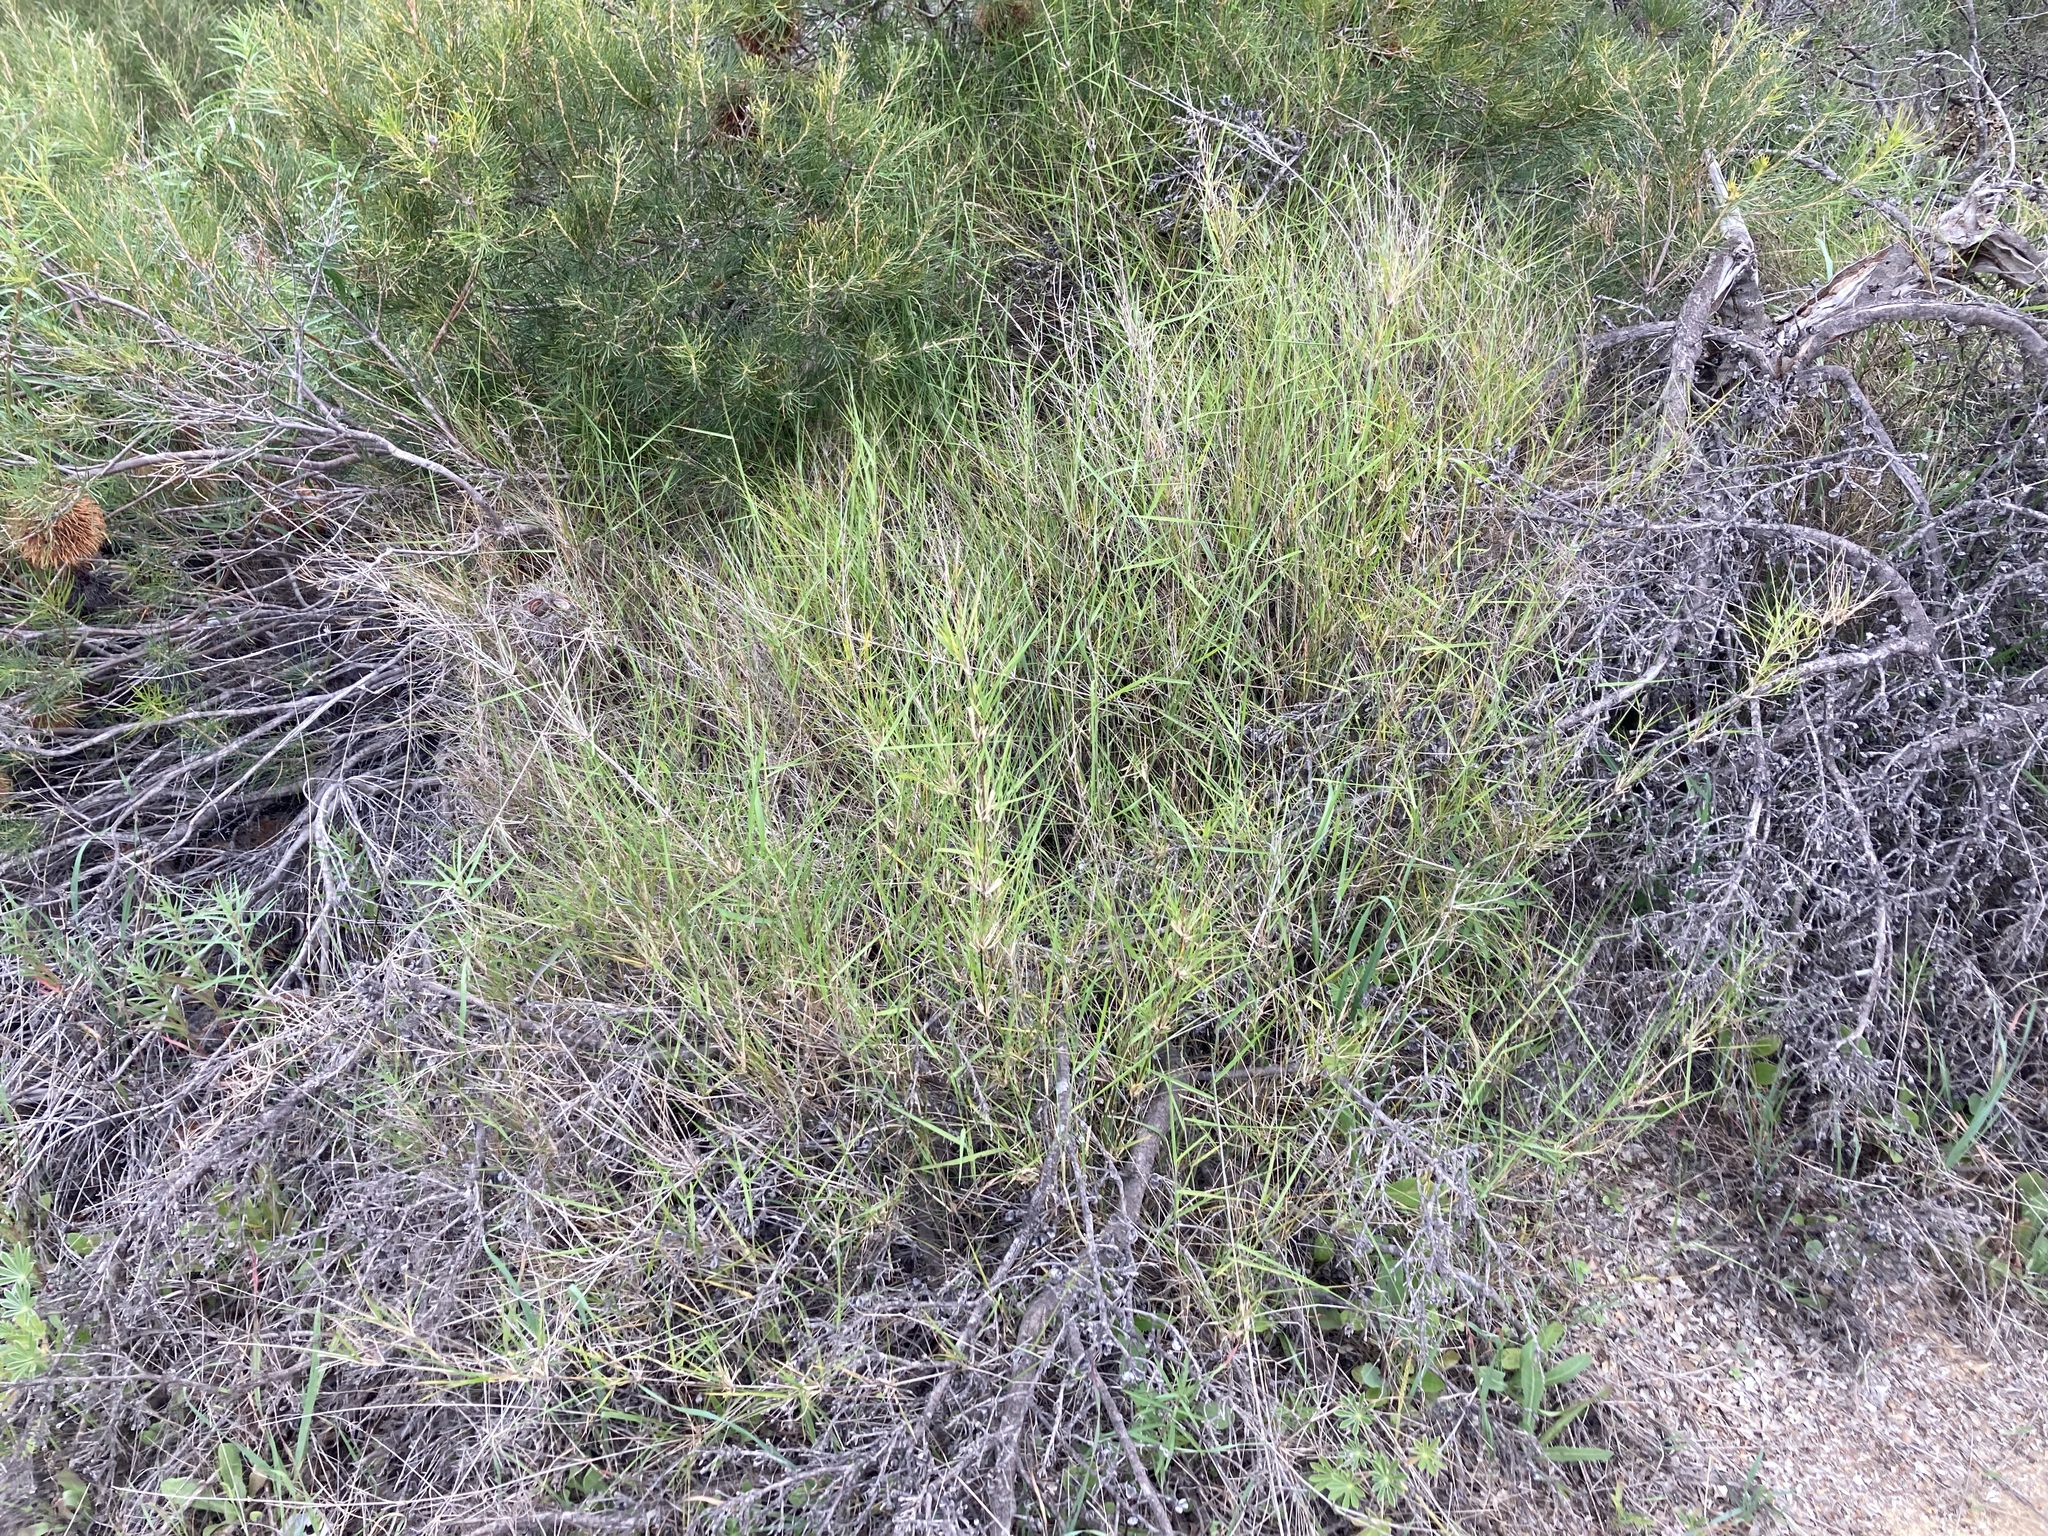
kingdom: Plantae
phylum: Tracheophyta
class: Liliopsida
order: Poales
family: Poaceae
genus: Austrostipa
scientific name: Austrostipa elegantissima
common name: Feather spear grass
